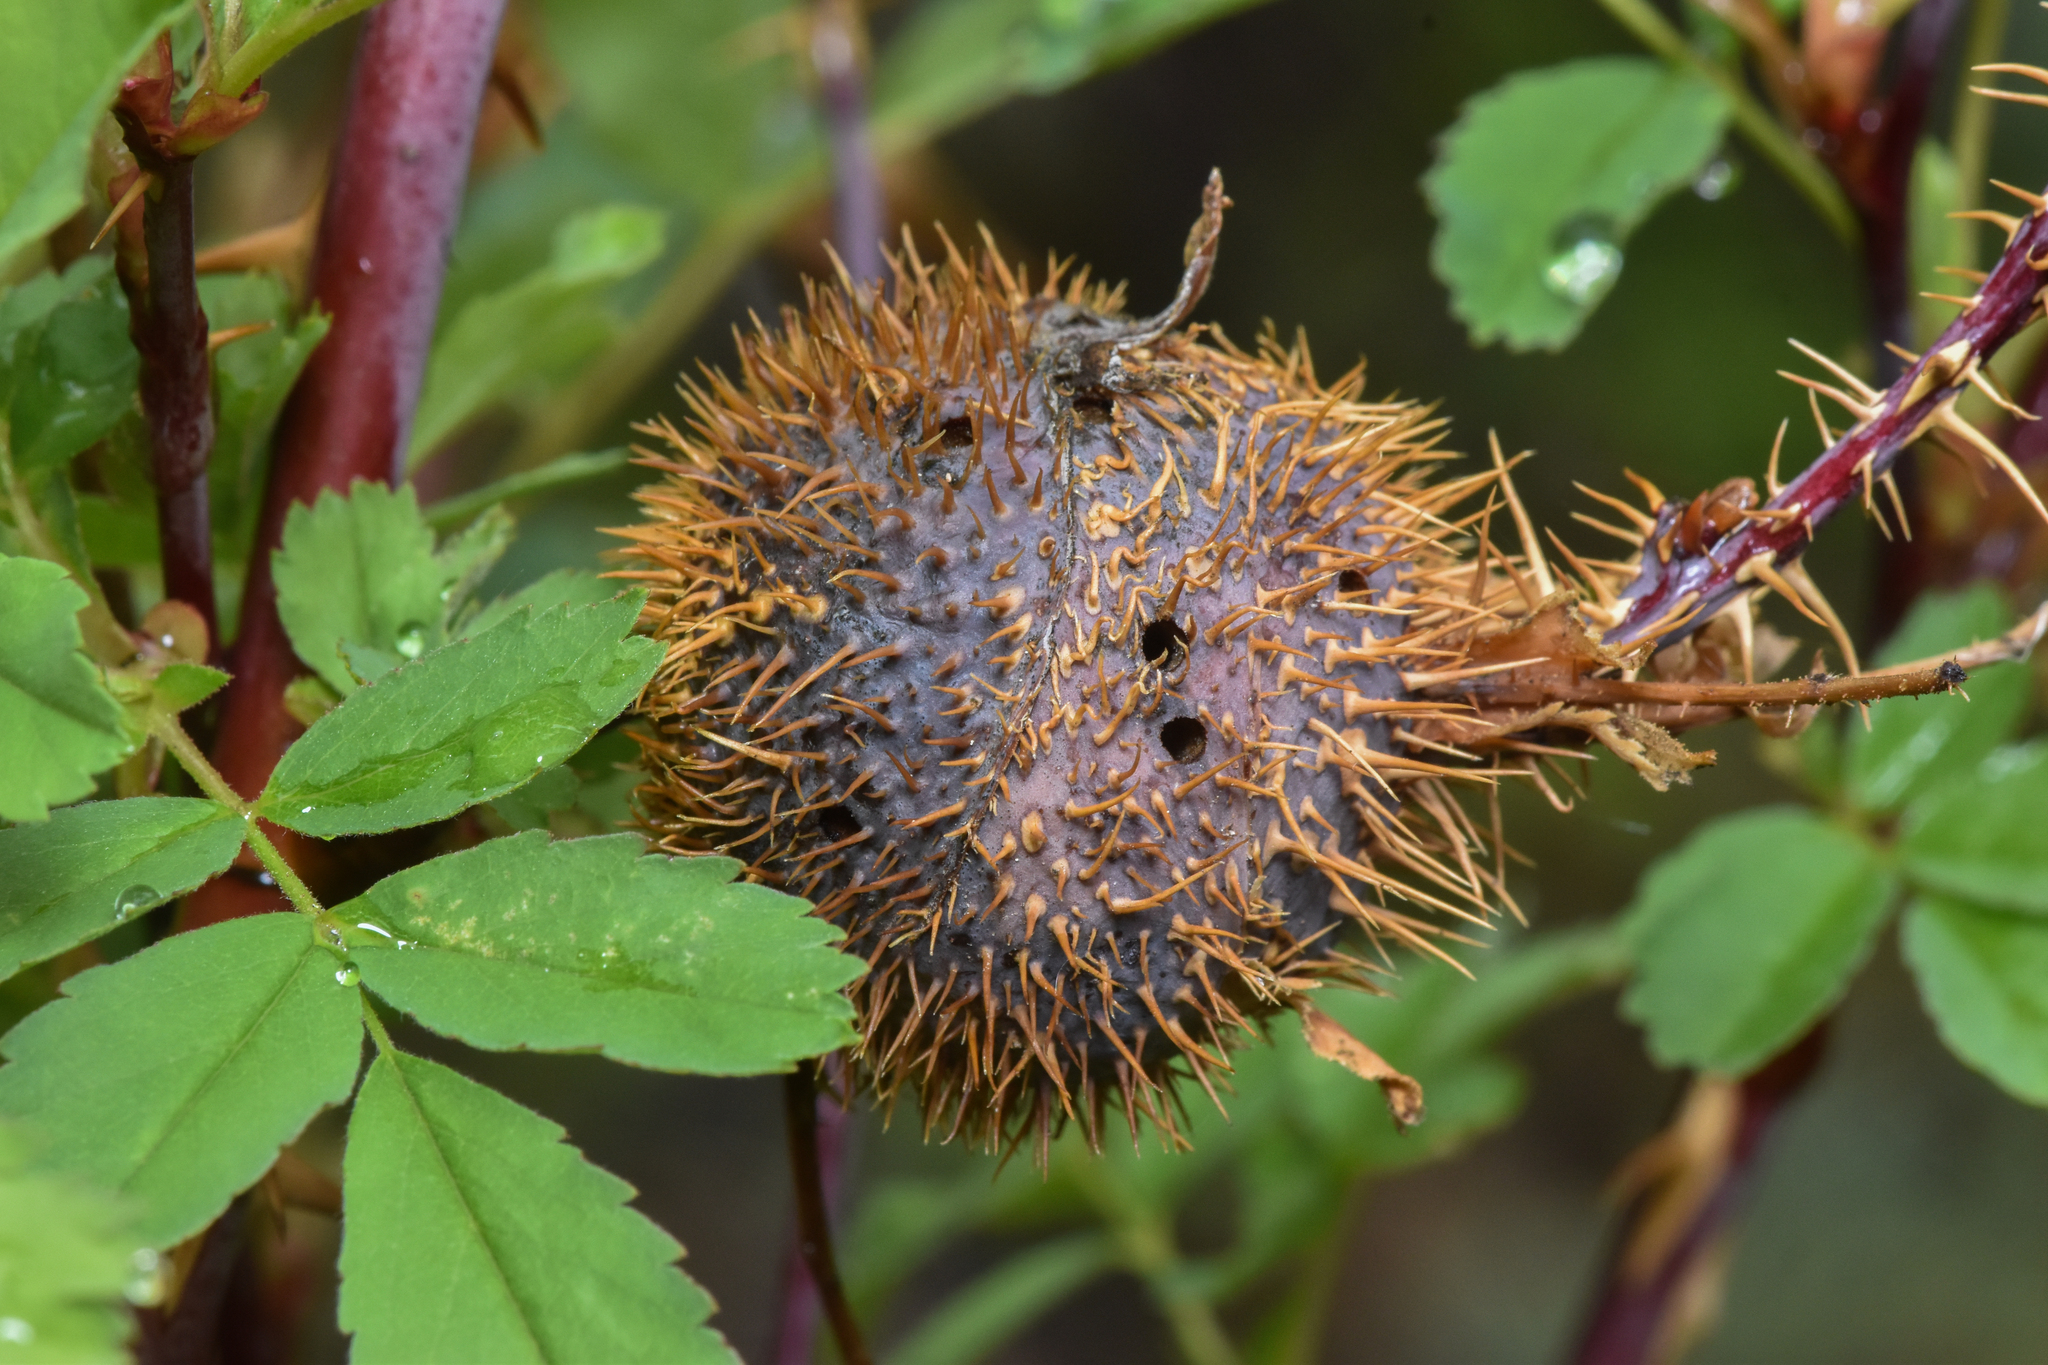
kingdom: Animalia
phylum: Arthropoda
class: Insecta
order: Hymenoptera
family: Cynipidae
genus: Diplolepis
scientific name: Diplolepis spinosa
